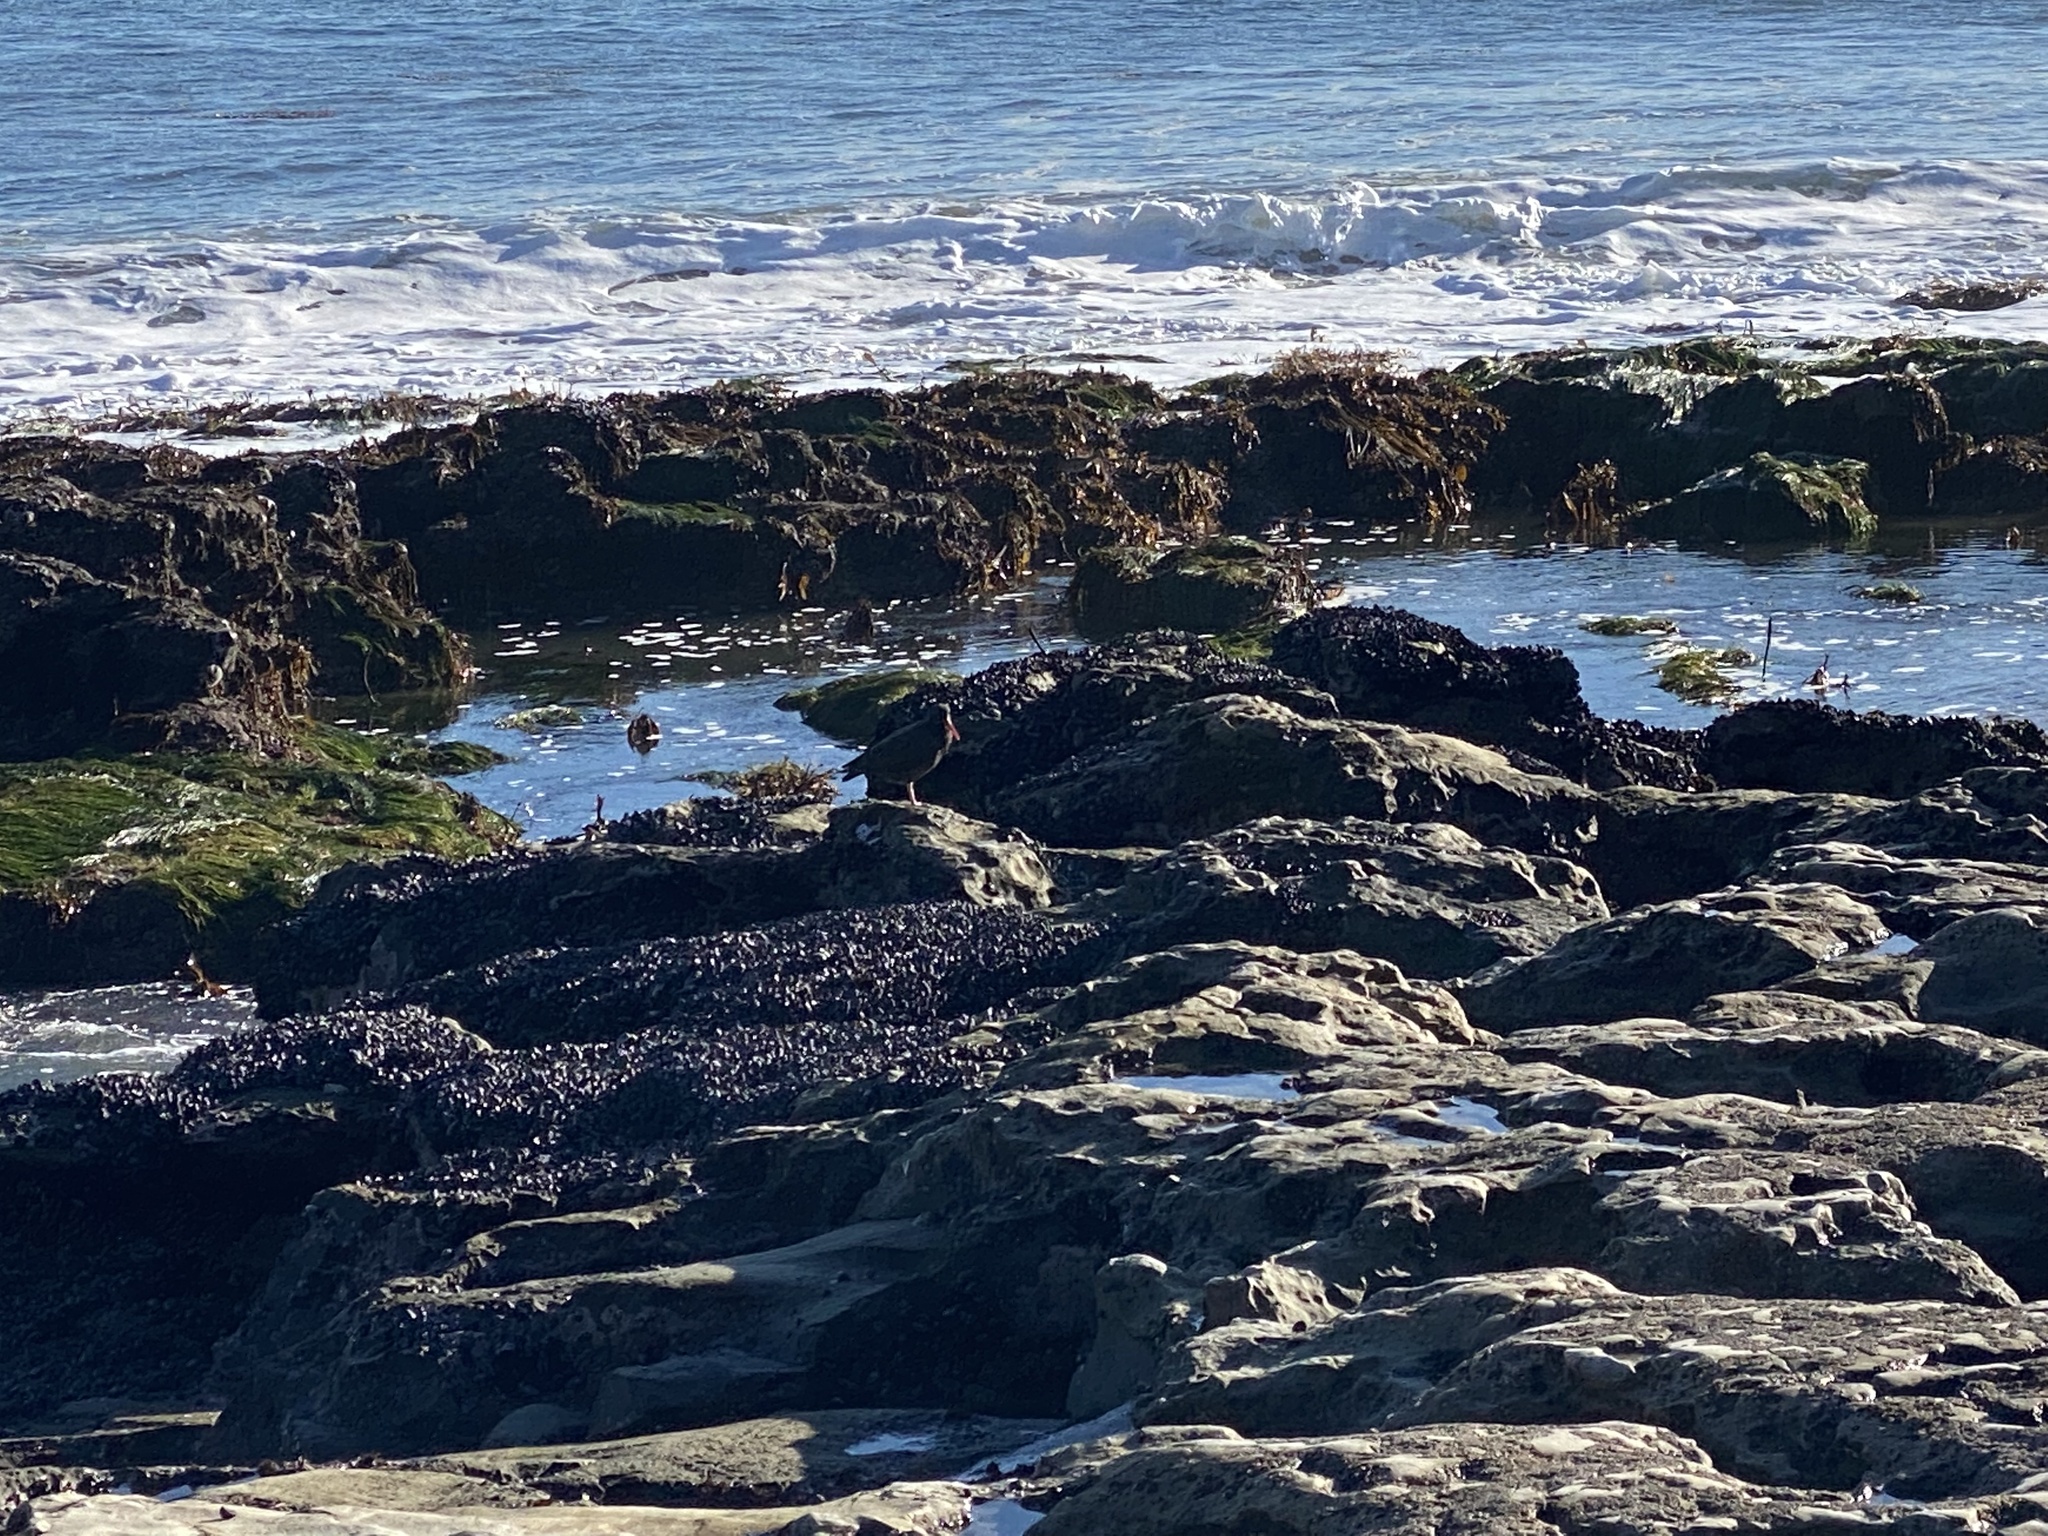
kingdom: Animalia
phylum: Chordata
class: Aves
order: Charadriiformes
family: Haematopodidae
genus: Haematopus
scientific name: Haematopus bachmani
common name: Black oystercatcher
